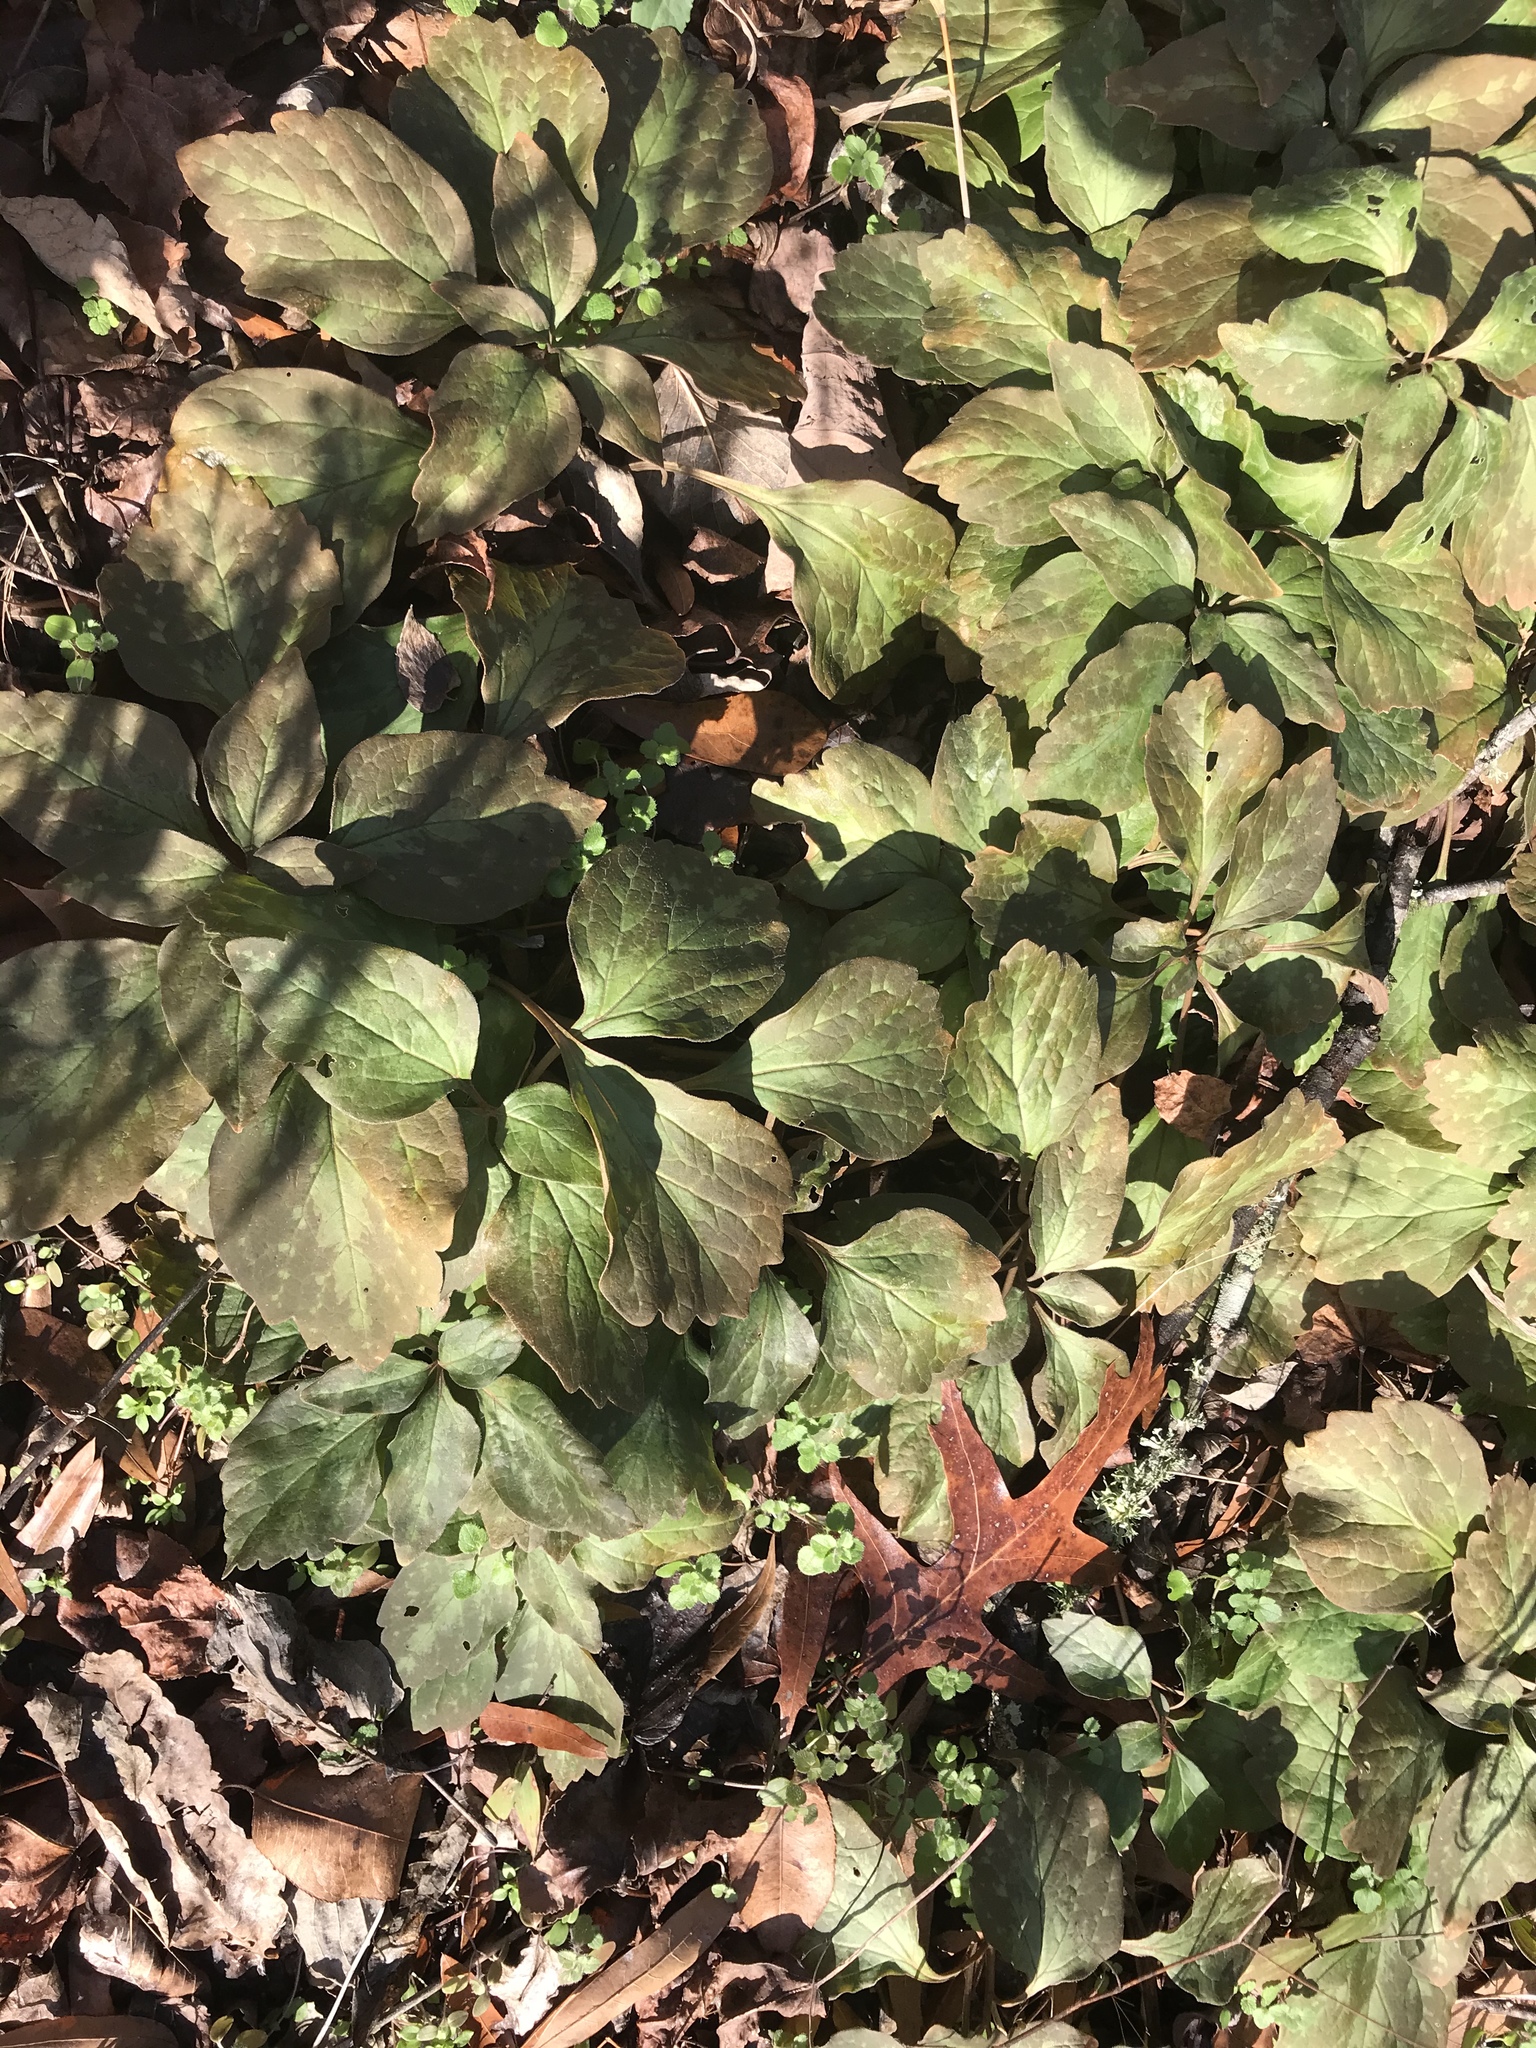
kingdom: Plantae
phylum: Tracheophyta
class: Magnoliopsida
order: Buxales
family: Buxaceae
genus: Pachysandra
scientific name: Pachysandra procumbens
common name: Mountain-spurge
